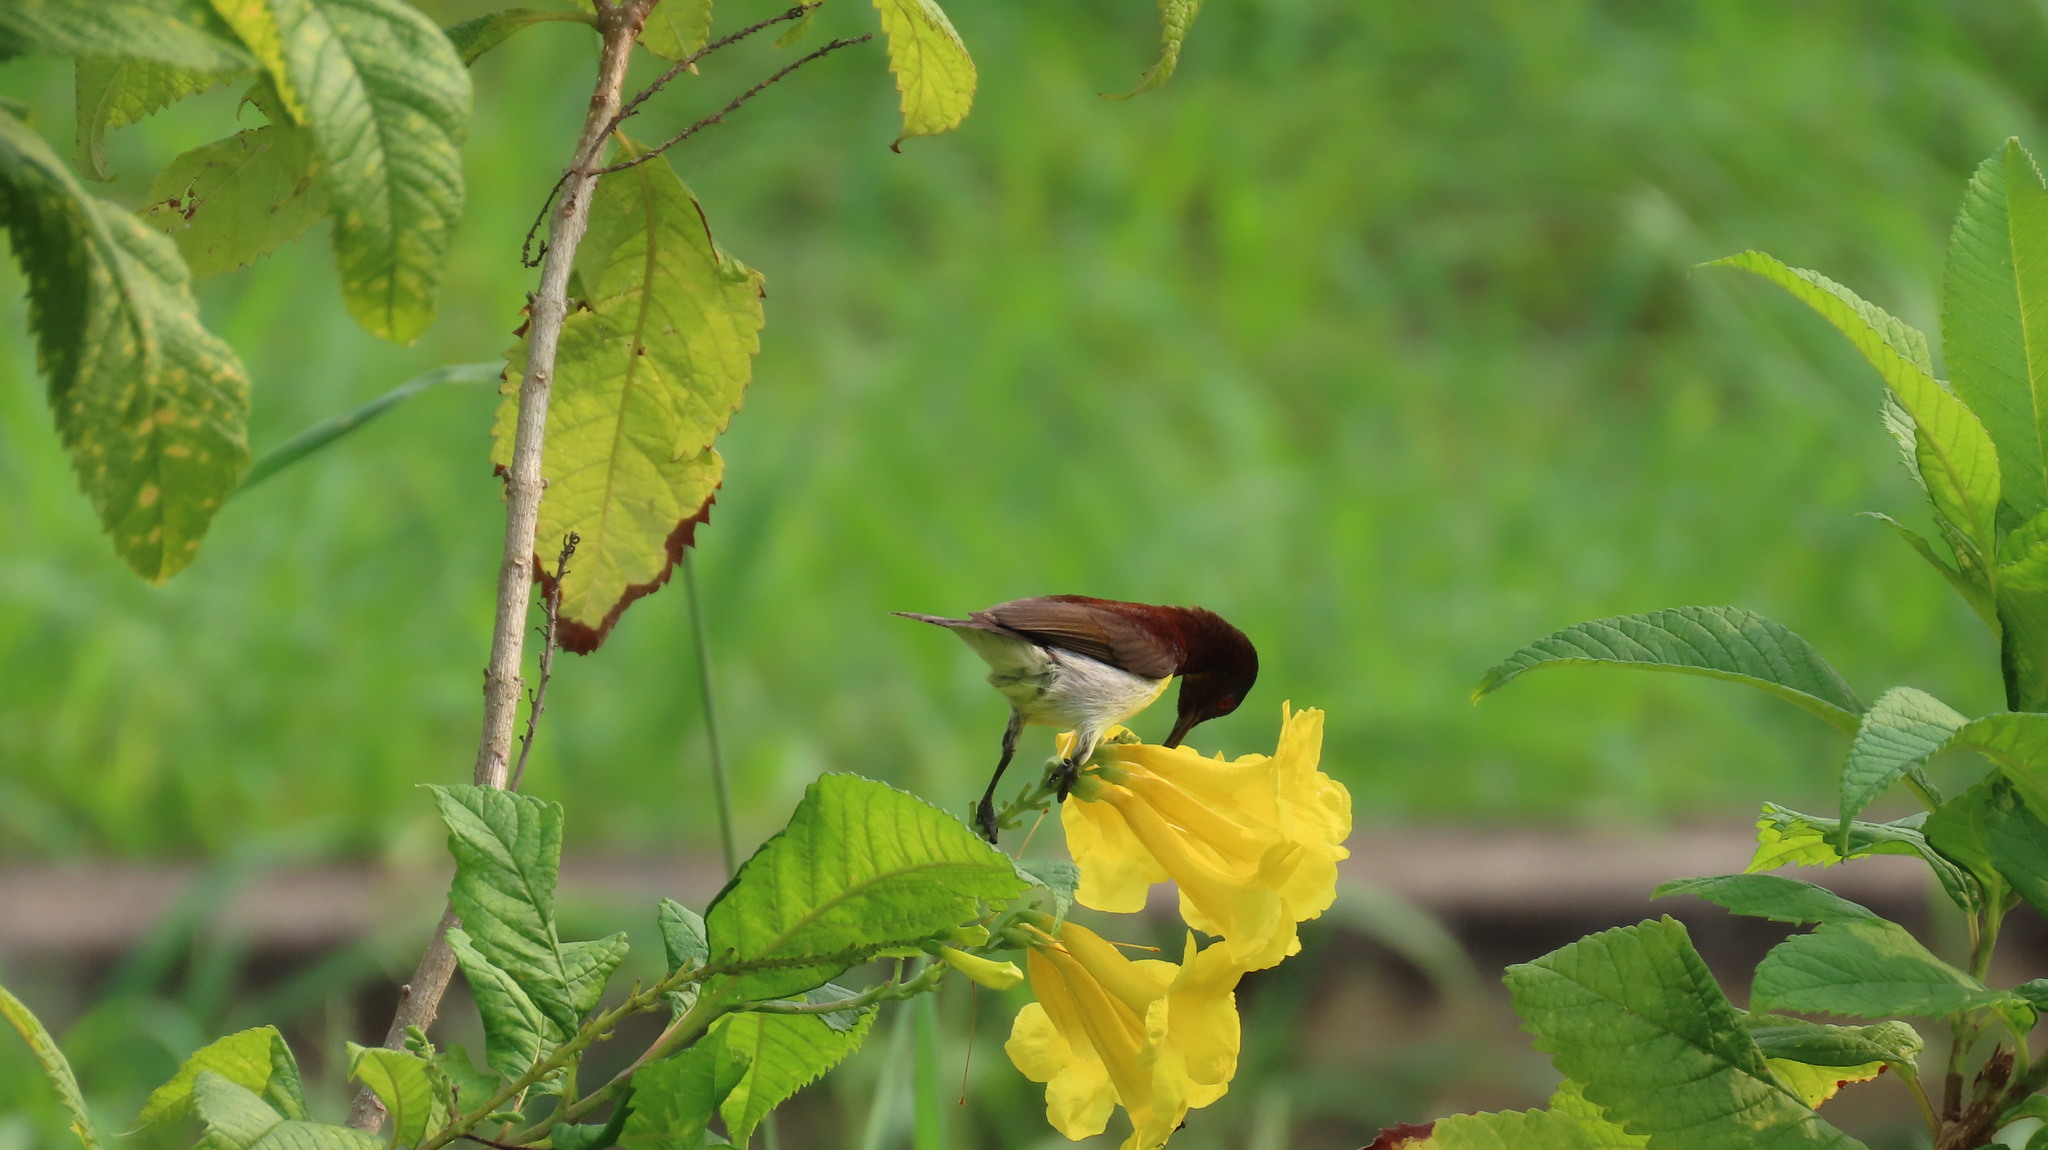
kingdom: Animalia
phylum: Chordata
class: Aves
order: Passeriformes
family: Nectariniidae
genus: Leptocoma
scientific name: Leptocoma zeylonica
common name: Purple-rumped sunbird
